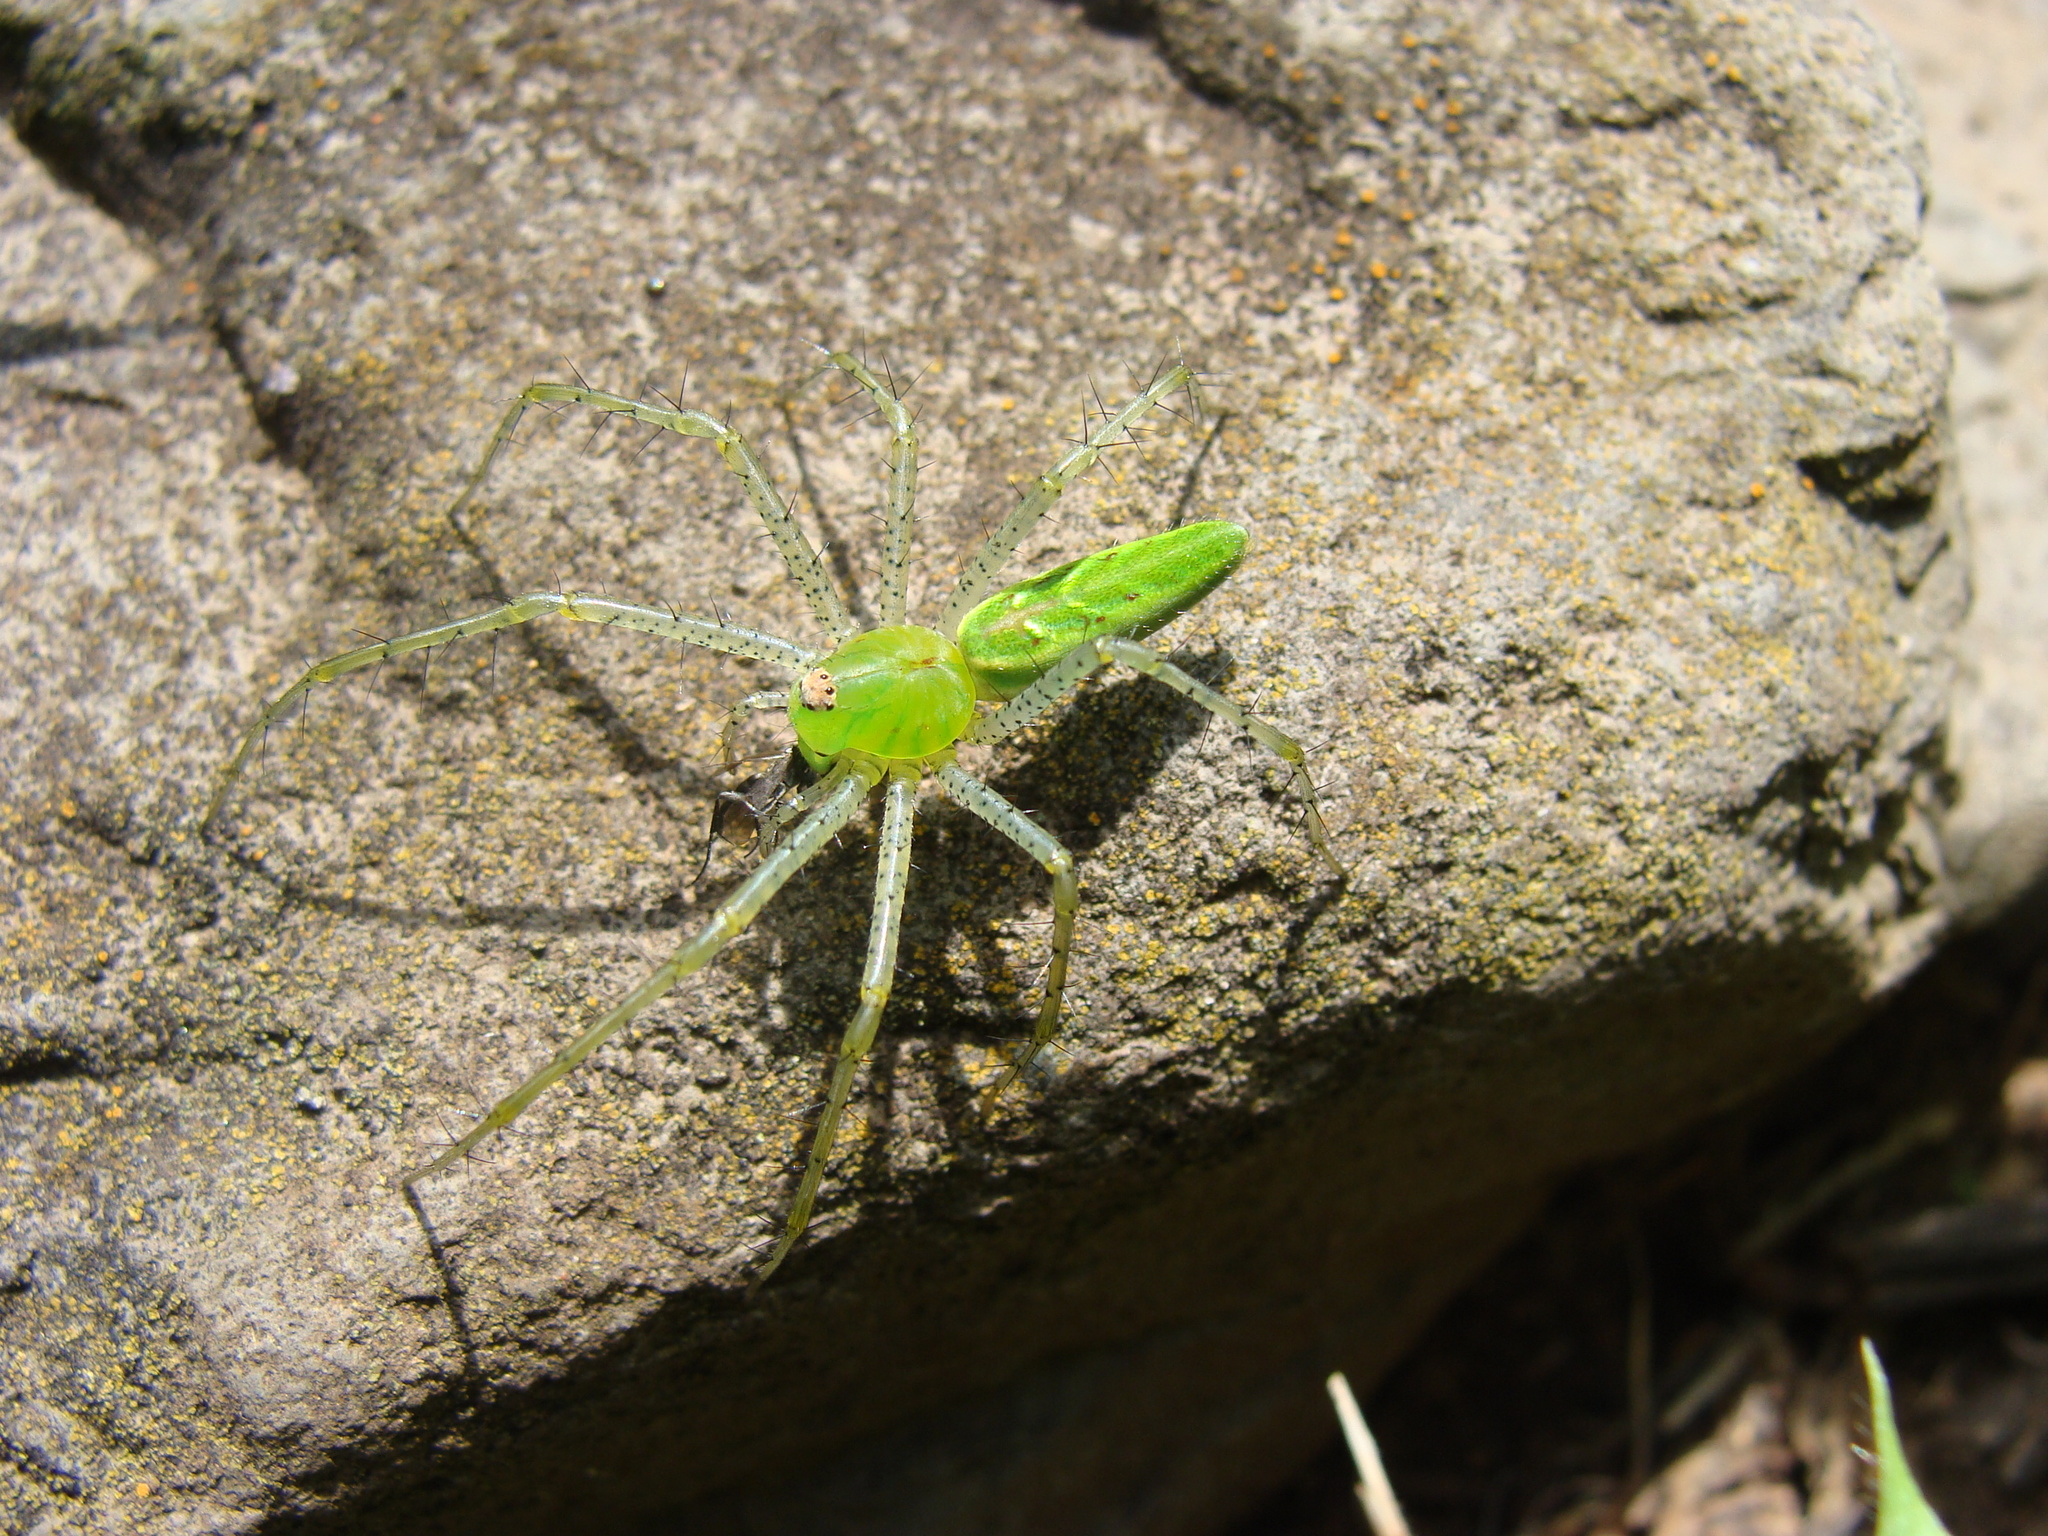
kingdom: Animalia
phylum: Arthropoda
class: Arachnida
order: Araneae
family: Oxyopidae
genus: Peucetia
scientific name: Peucetia viridans
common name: Lynx spiders
